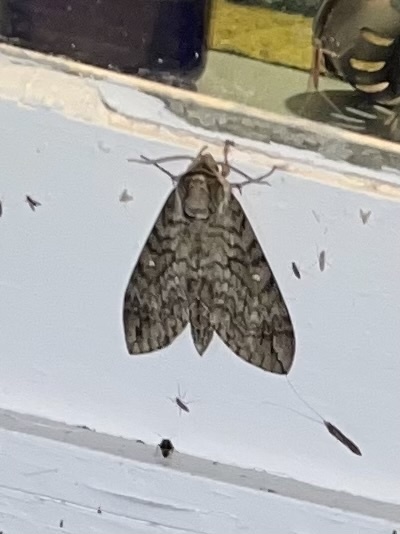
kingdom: Animalia
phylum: Arthropoda
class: Insecta
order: Lepidoptera
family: Sphingidae
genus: Ceratomia
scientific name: Ceratomia undulosa
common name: Waved sphinx
